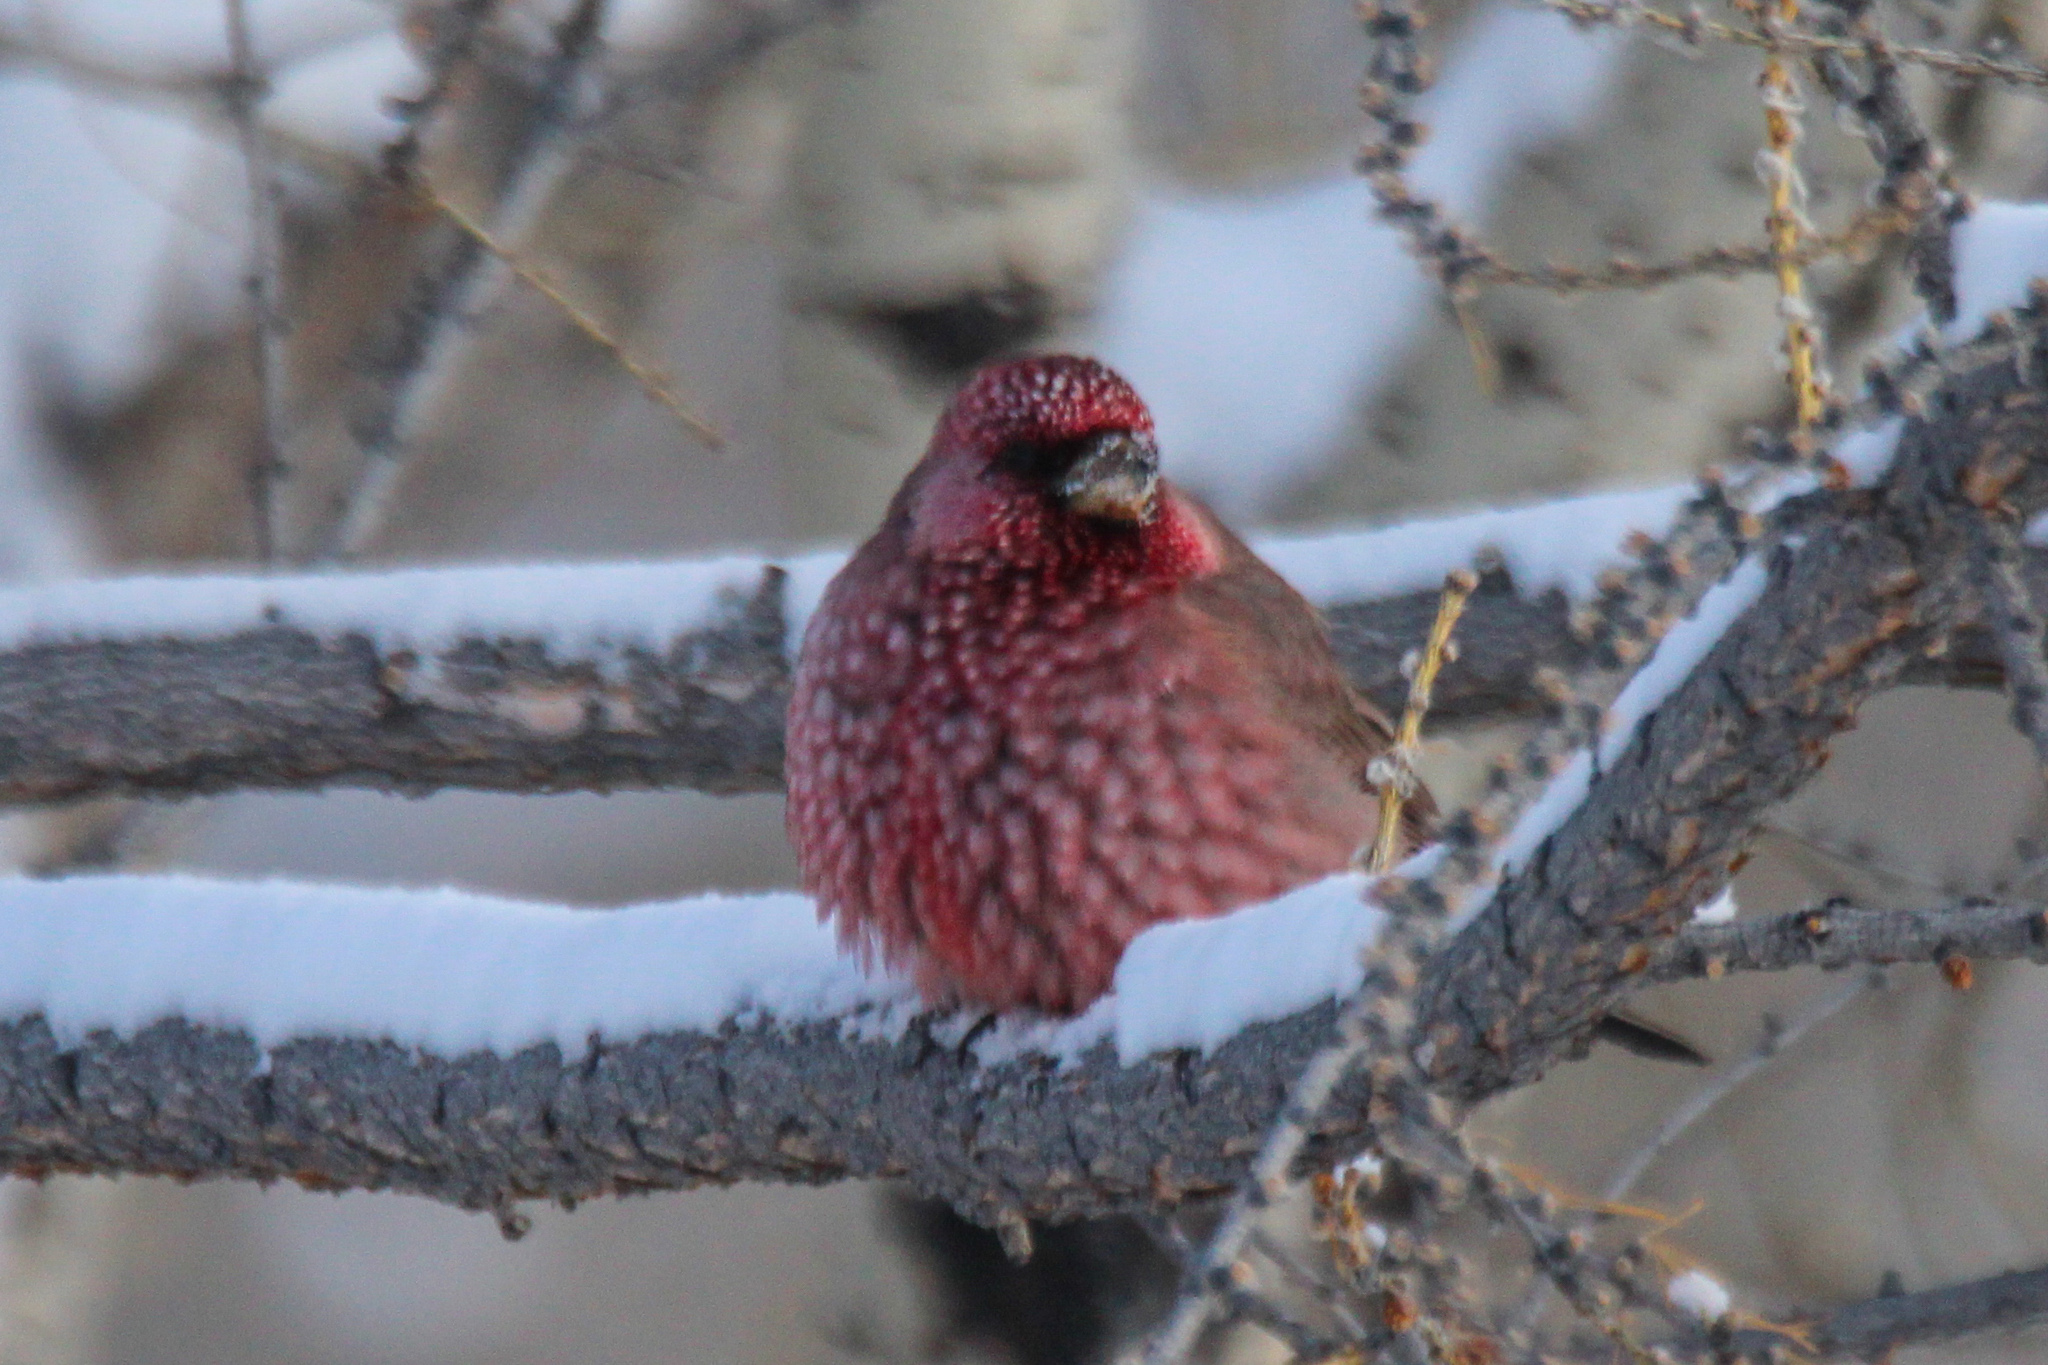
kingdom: Animalia
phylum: Chordata
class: Aves
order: Passeriformes
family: Fringillidae
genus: Carpodacus
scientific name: Carpodacus rubicilla
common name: Great rosefinch
